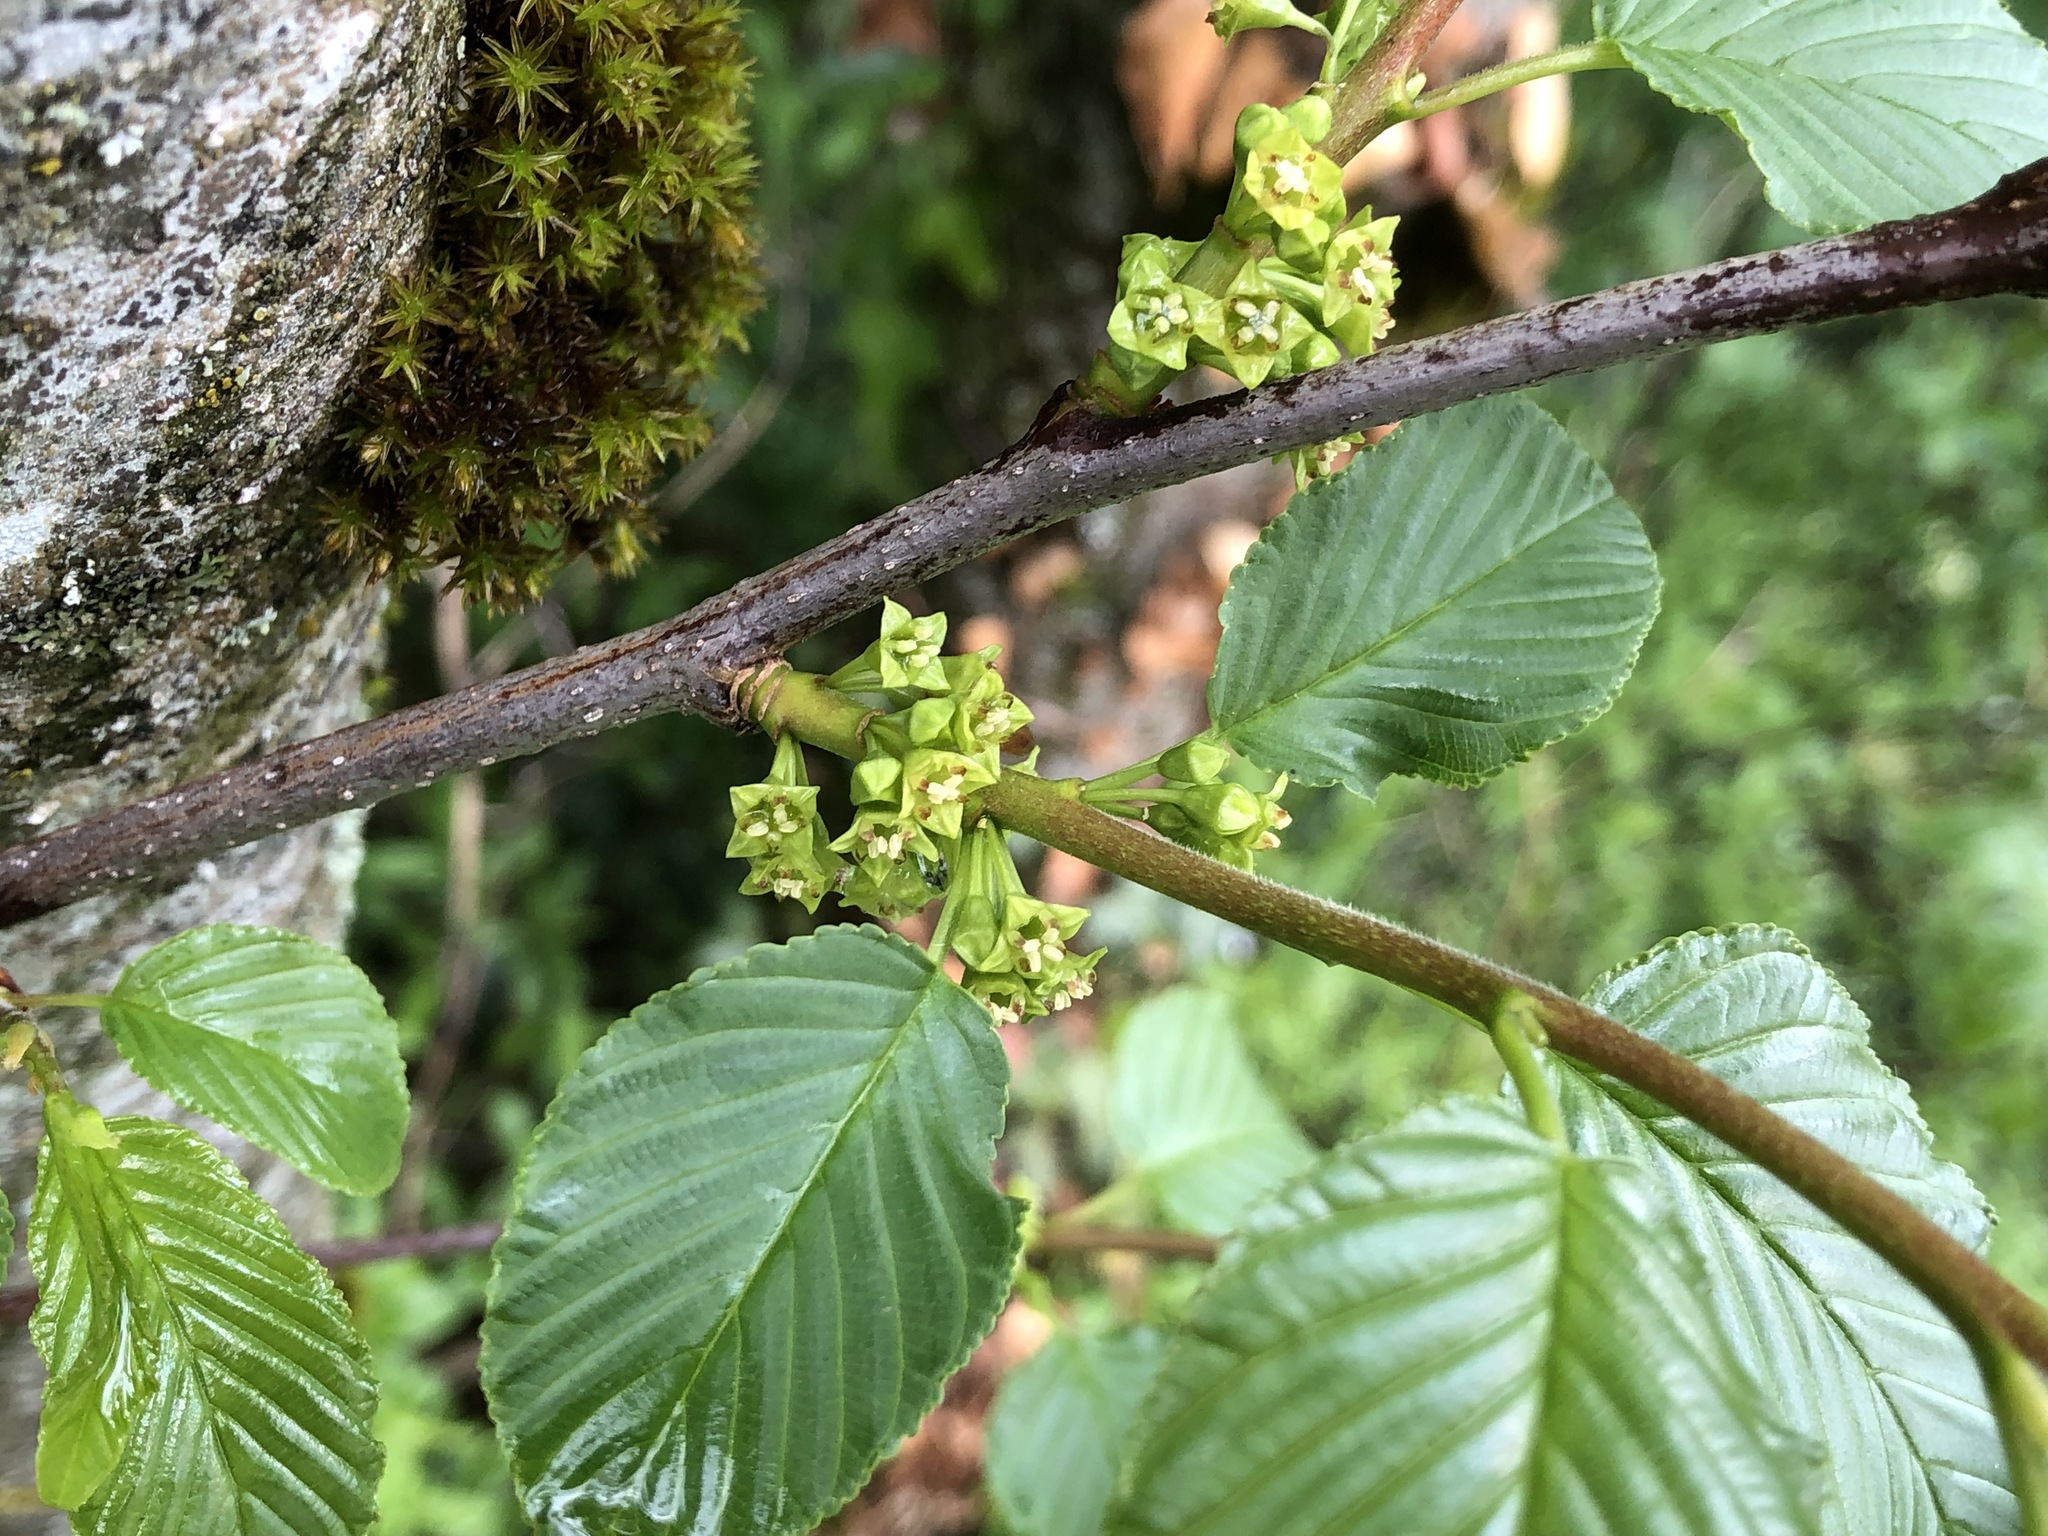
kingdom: Plantae
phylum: Tracheophyta
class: Magnoliopsida
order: Rosales
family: Rhamnaceae
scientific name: Rhamnaceae
